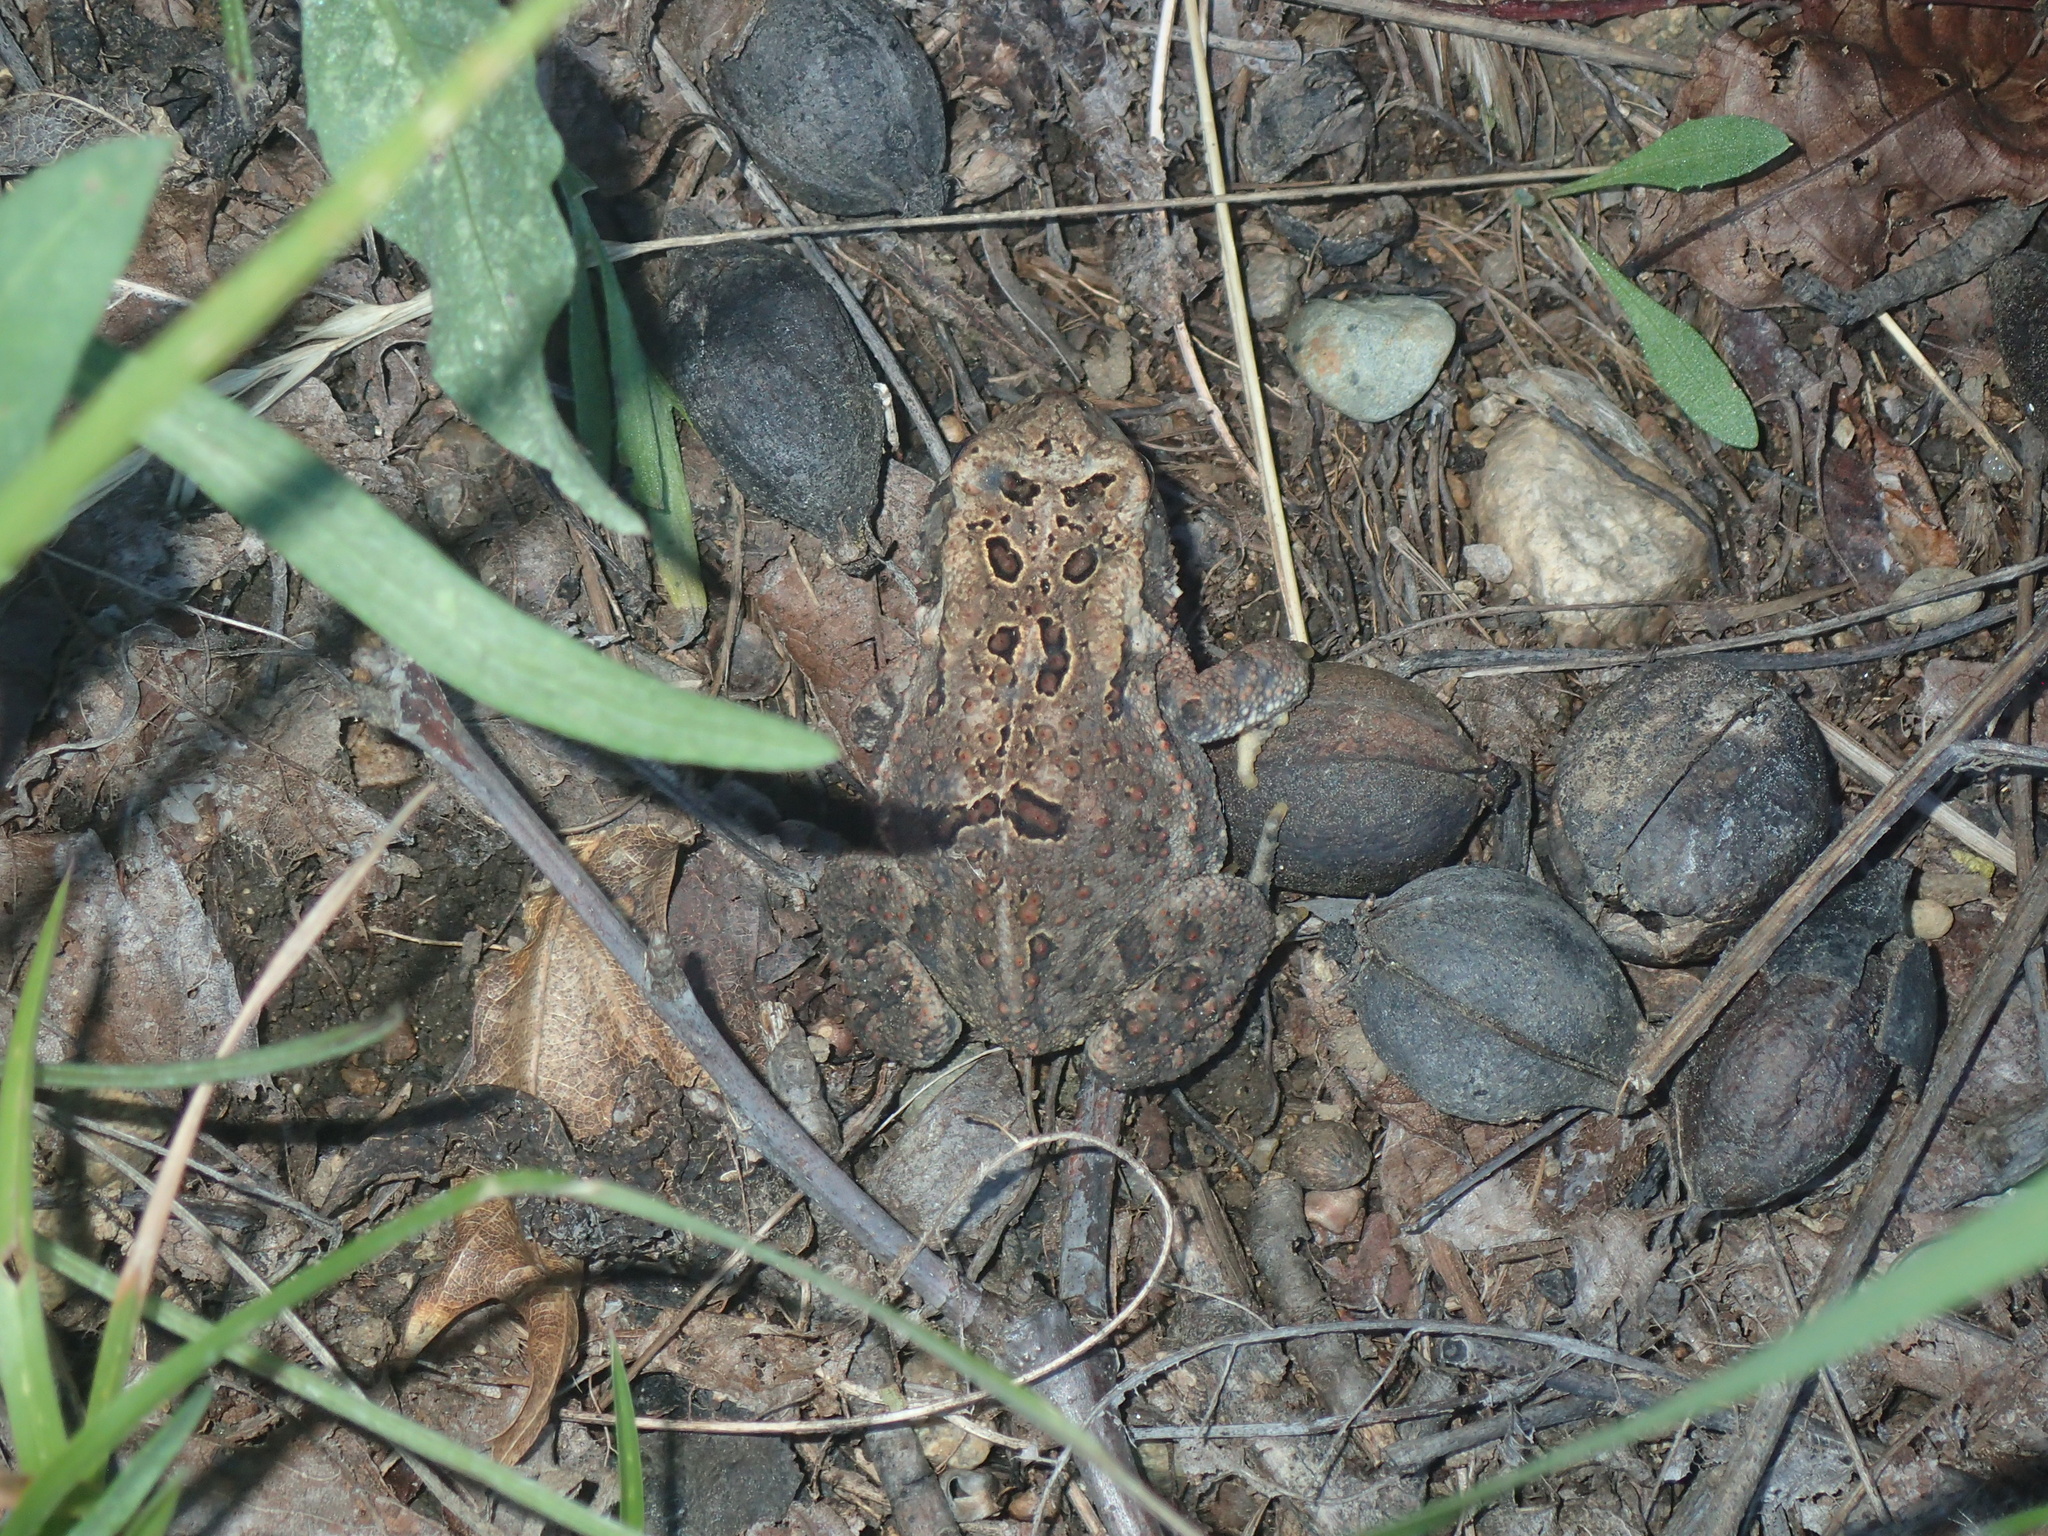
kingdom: Animalia
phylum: Chordata
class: Amphibia
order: Anura
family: Bufonidae
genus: Anaxyrus
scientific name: Anaxyrus americanus
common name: American toad
